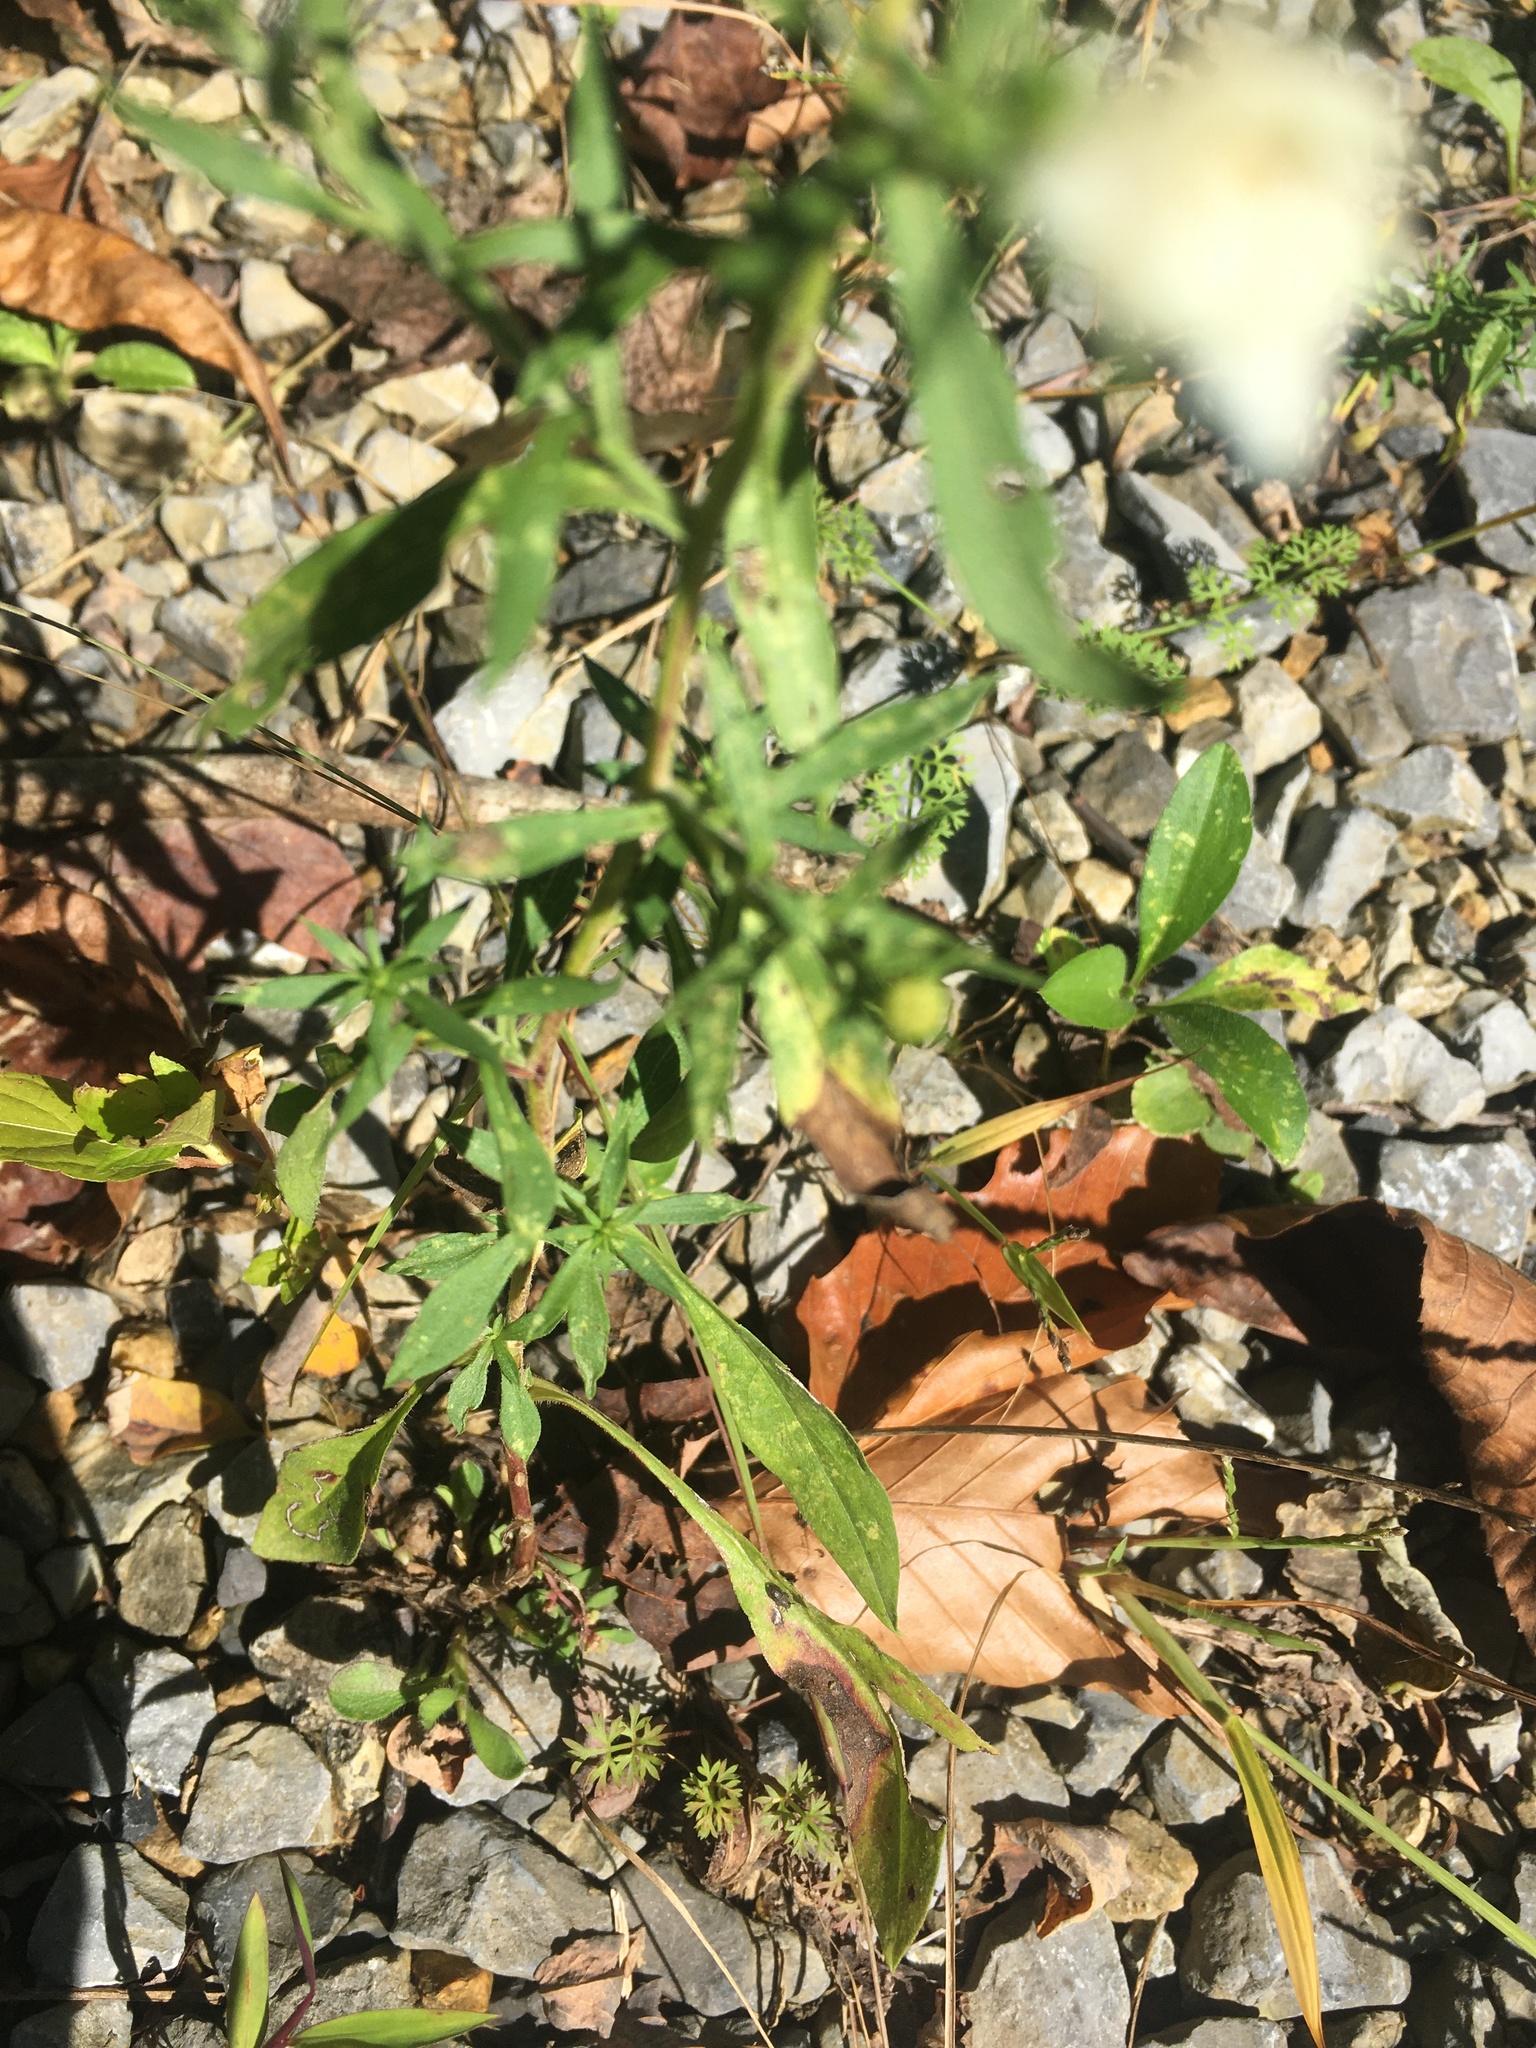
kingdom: Plantae
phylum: Tracheophyta
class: Magnoliopsida
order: Asterales
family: Asteraceae
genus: Symphyotrichum
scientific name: Symphyotrichum pilosum
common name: Awl aster
